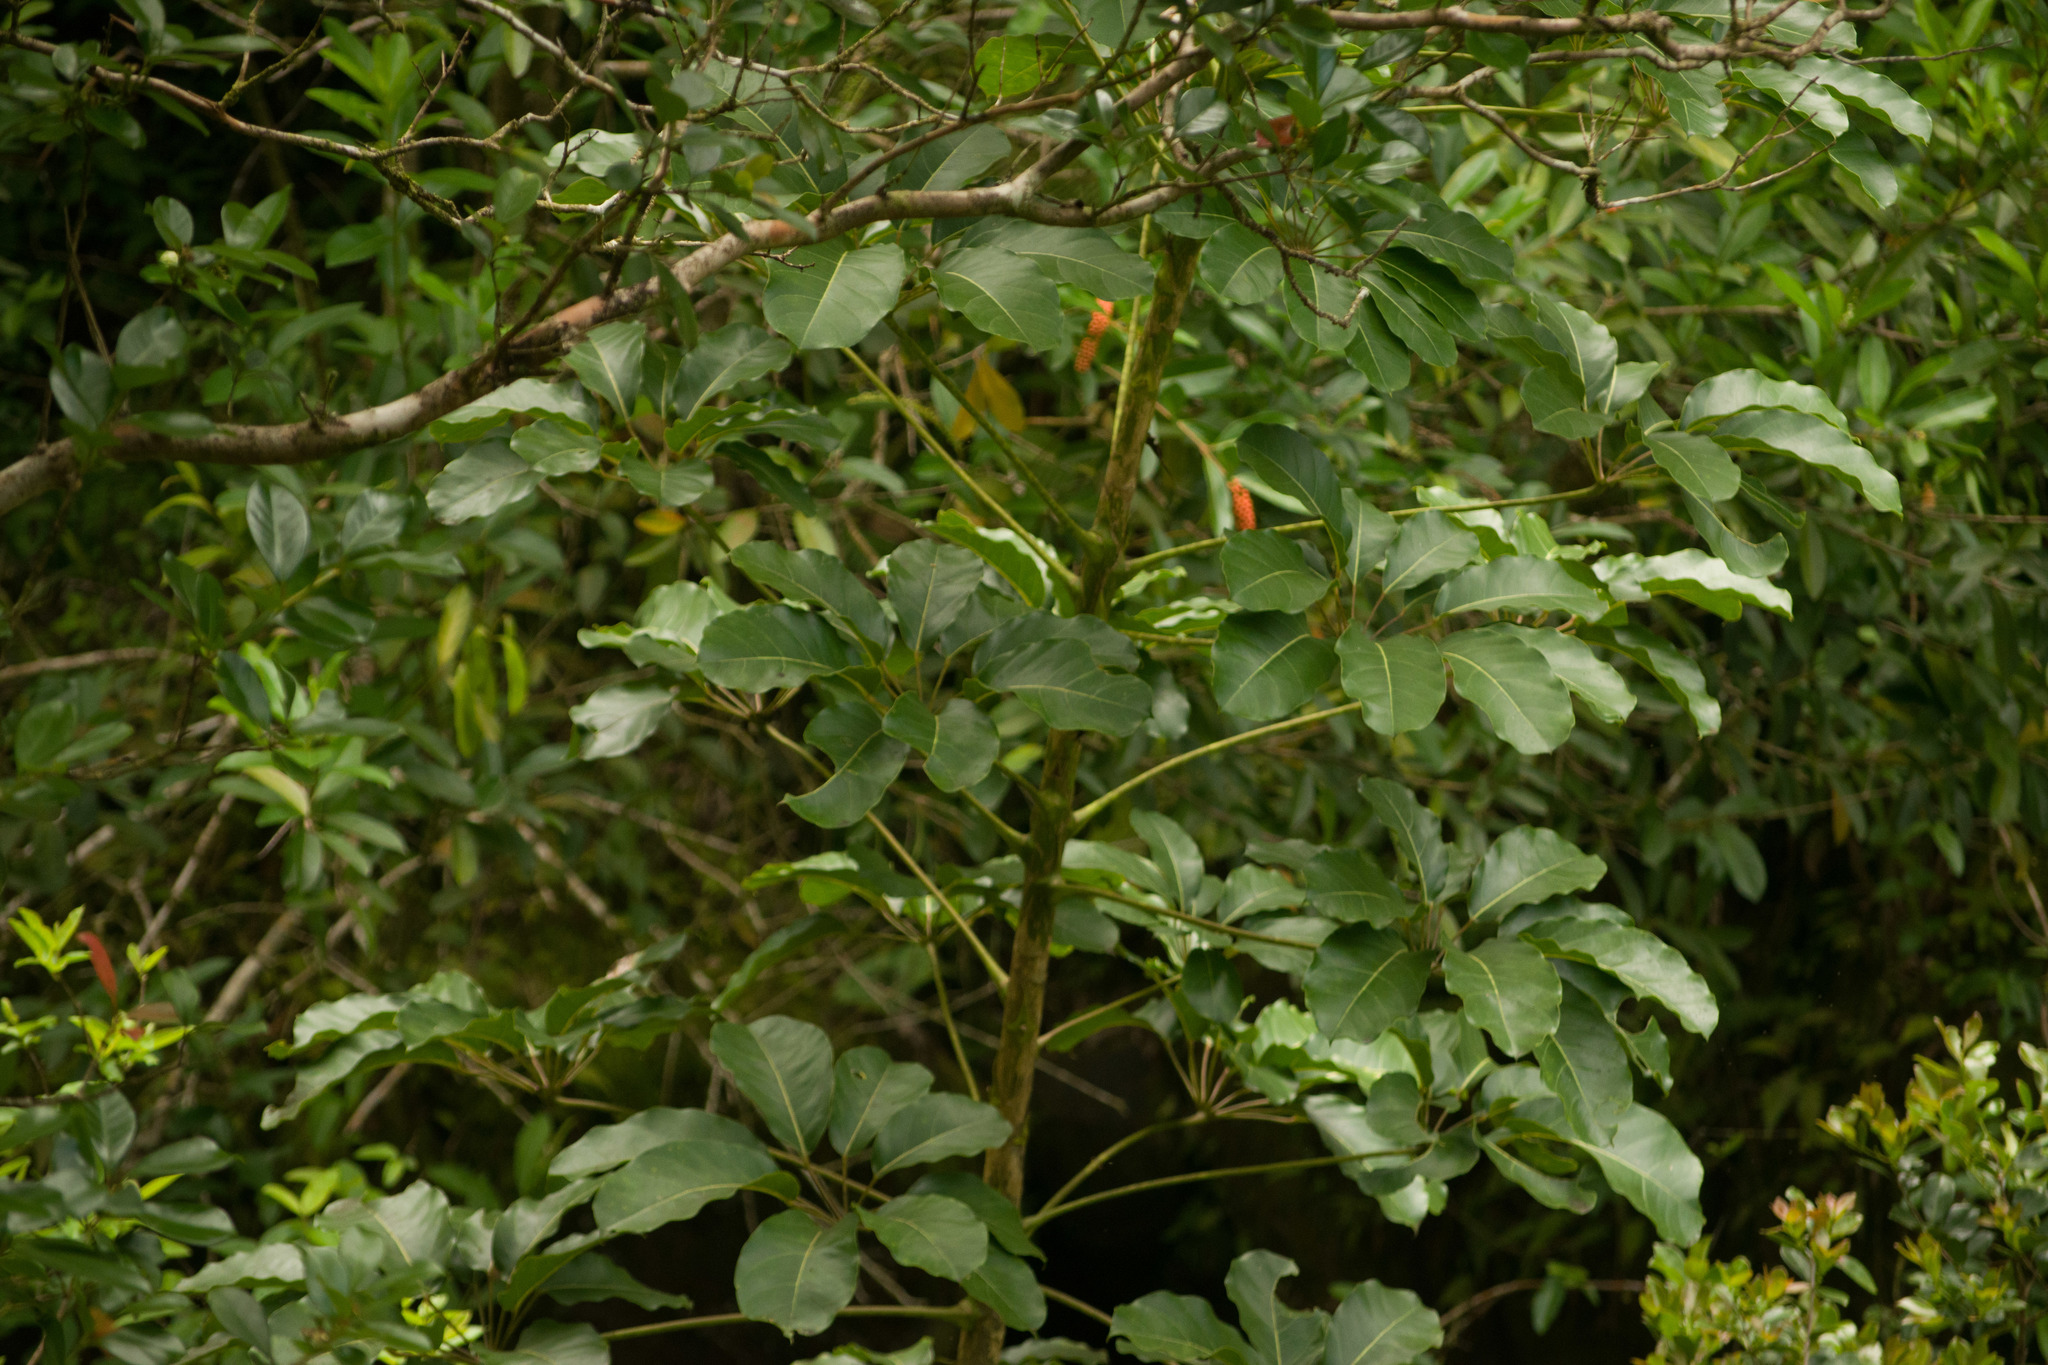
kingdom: Plantae
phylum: Tracheophyta
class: Magnoliopsida
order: Apiales
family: Araliaceae
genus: Heptapleurum
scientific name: Heptapleurum actinophyllum
